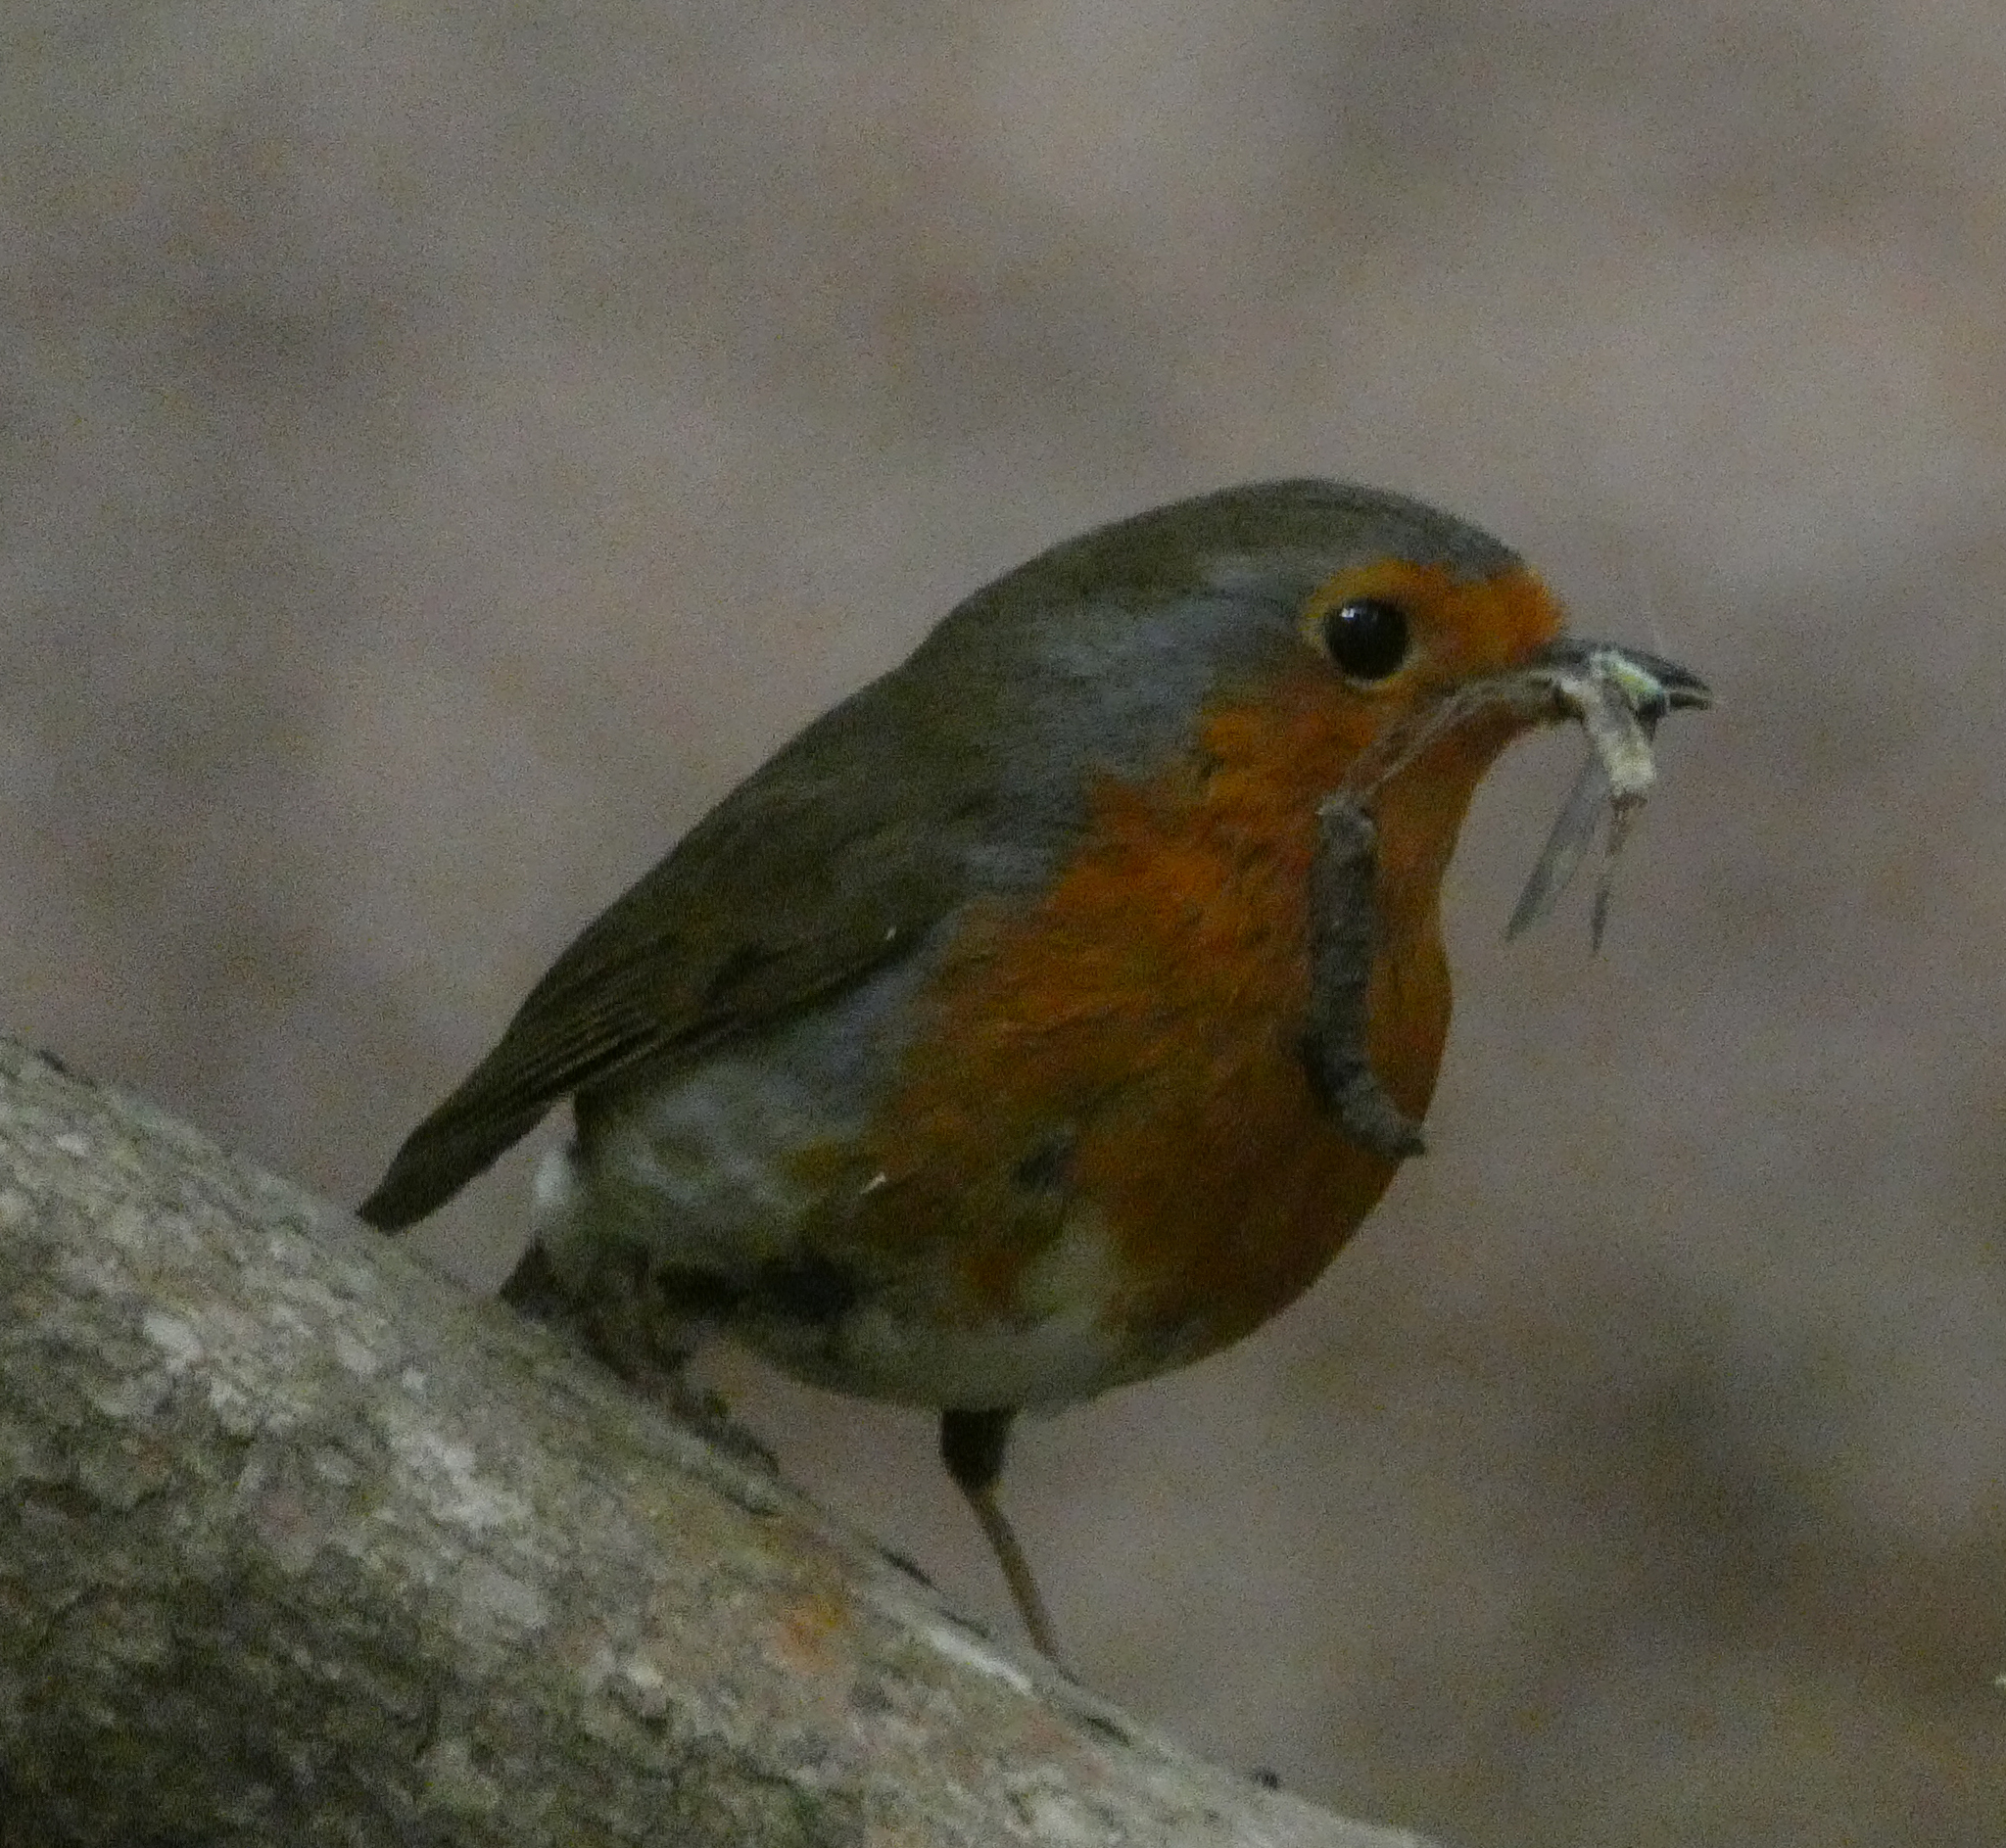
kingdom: Animalia
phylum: Chordata
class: Aves
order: Passeriformes
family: Muscicapidae
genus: Erithacus
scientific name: Erithacus rubecula
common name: European robin
